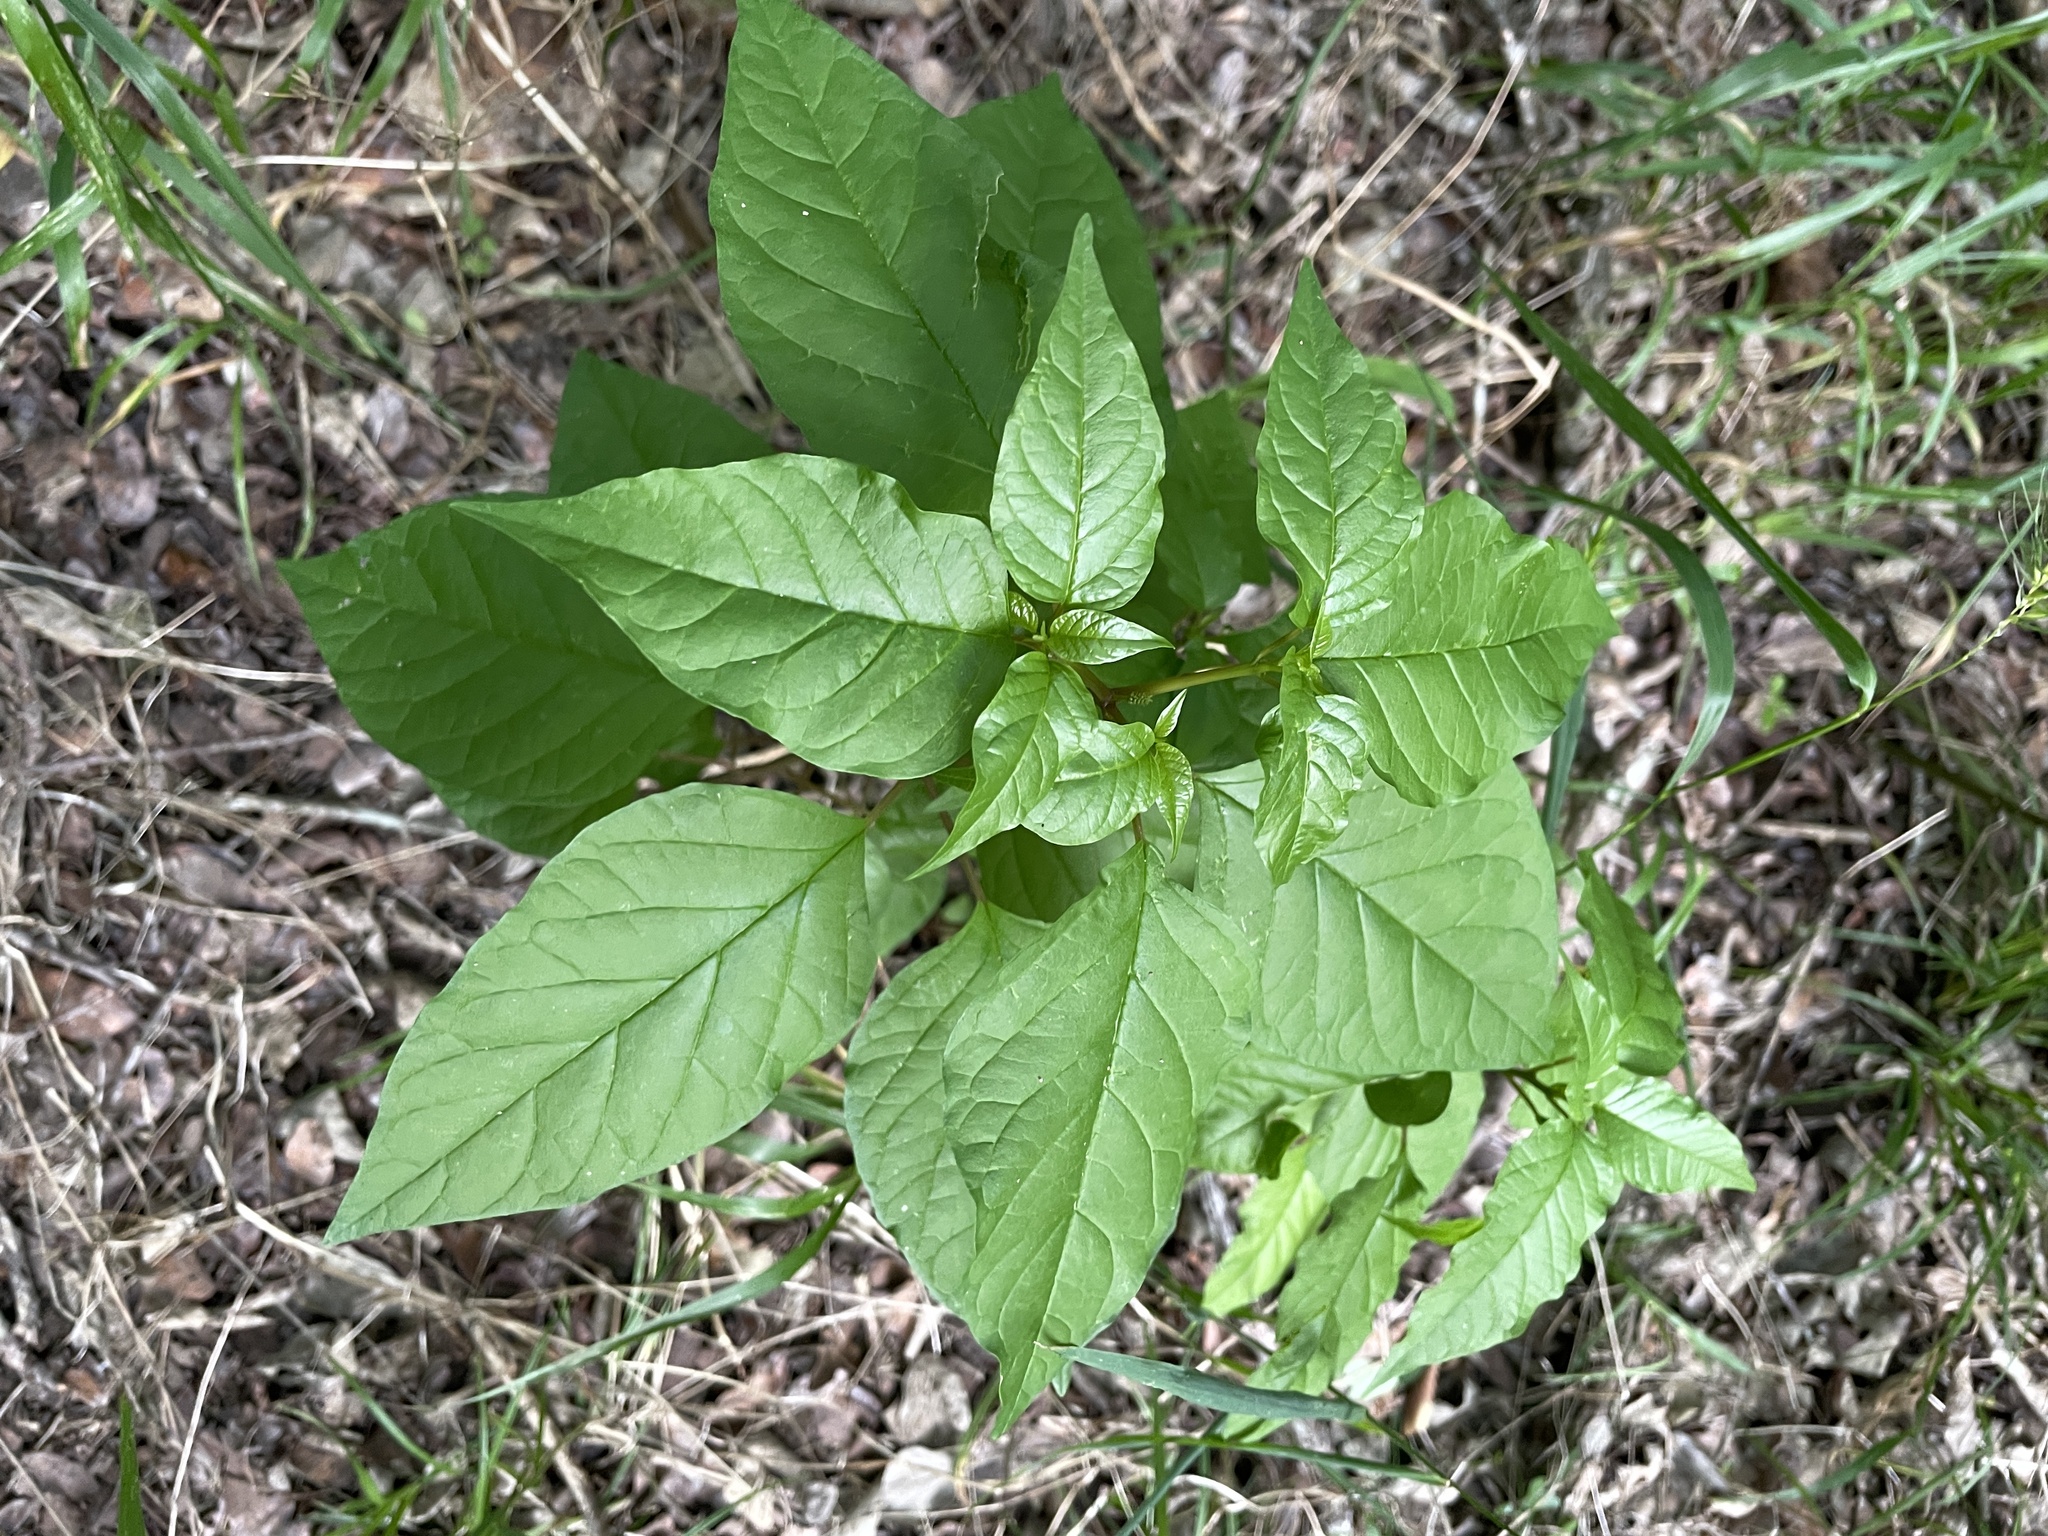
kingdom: Plantae
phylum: Tracheophyta
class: Magnoliopsida
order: Caryophyllales
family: Phytolaccaceae
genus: Rivina
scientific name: Rivina humilis
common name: Rougeplant
